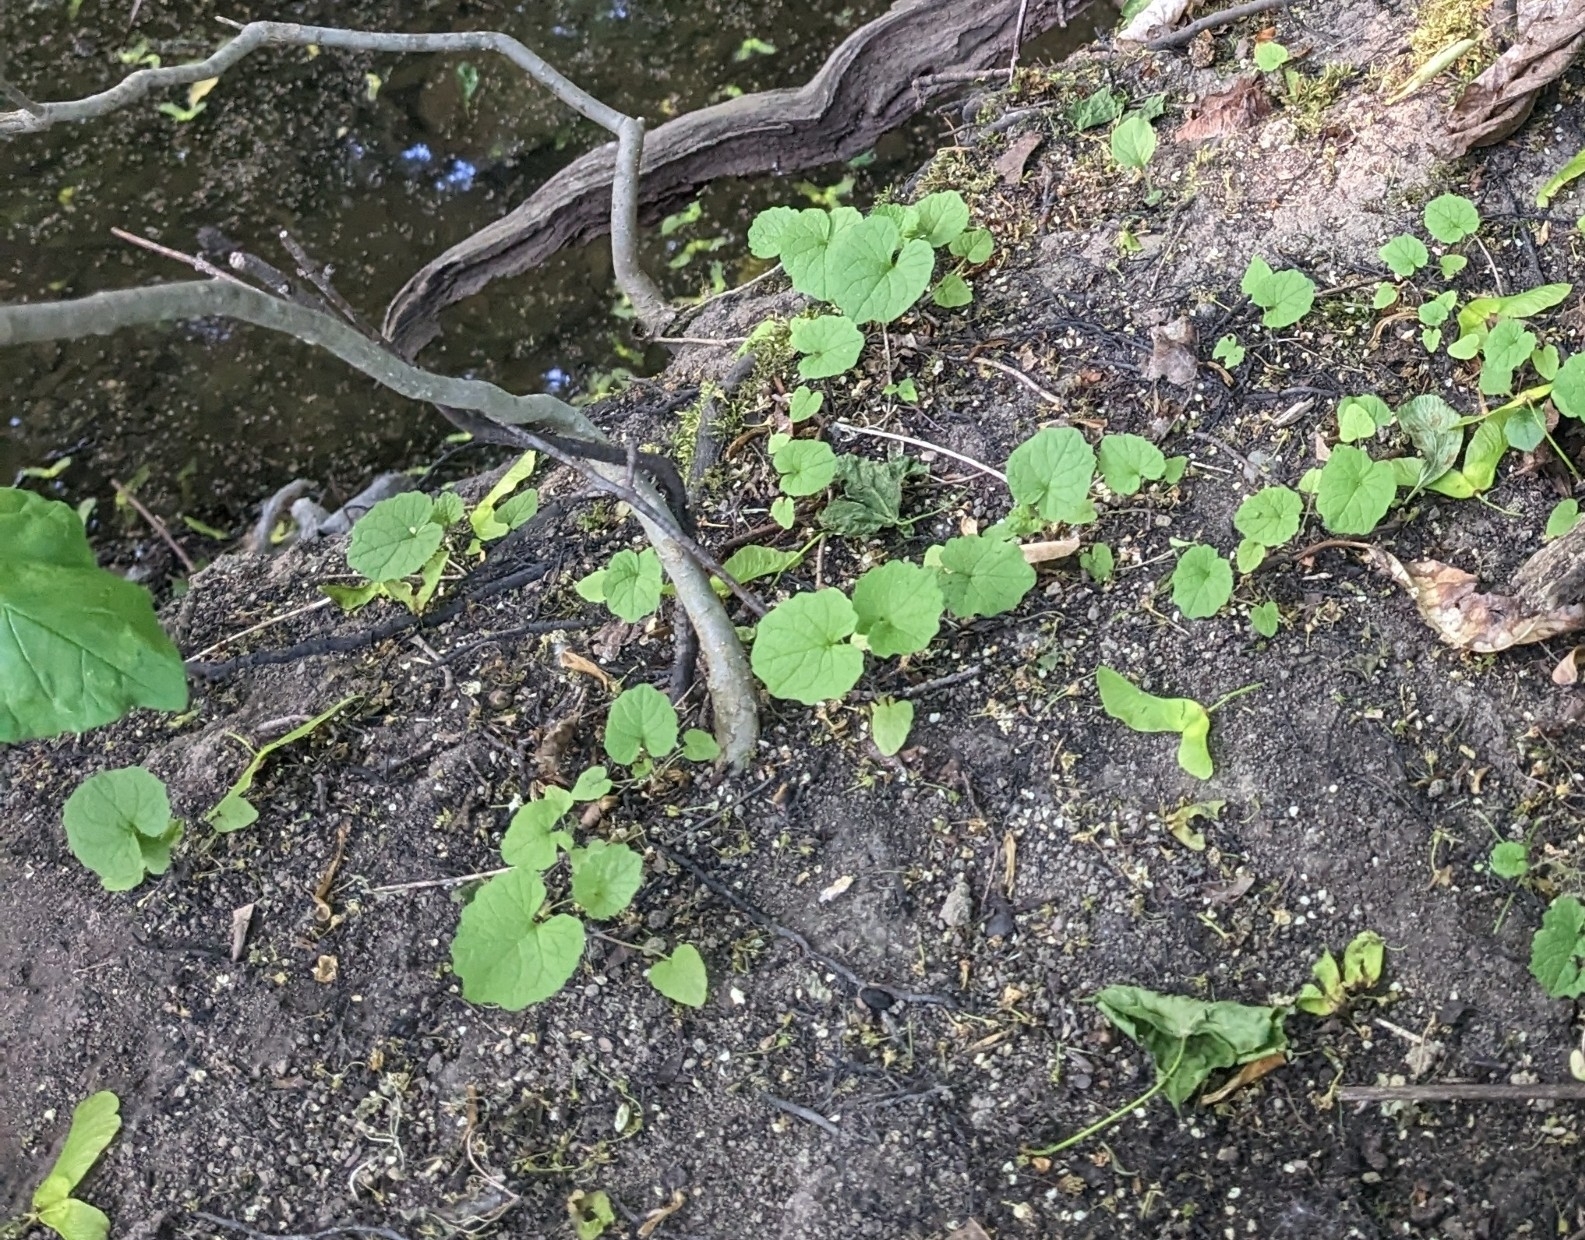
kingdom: Plantae
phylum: Tracheophyta
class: Magnoliopsida
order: Brassicales
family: Brassicaceae
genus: Alliaria
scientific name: Alliaria petiolata
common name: Garlic mustard
